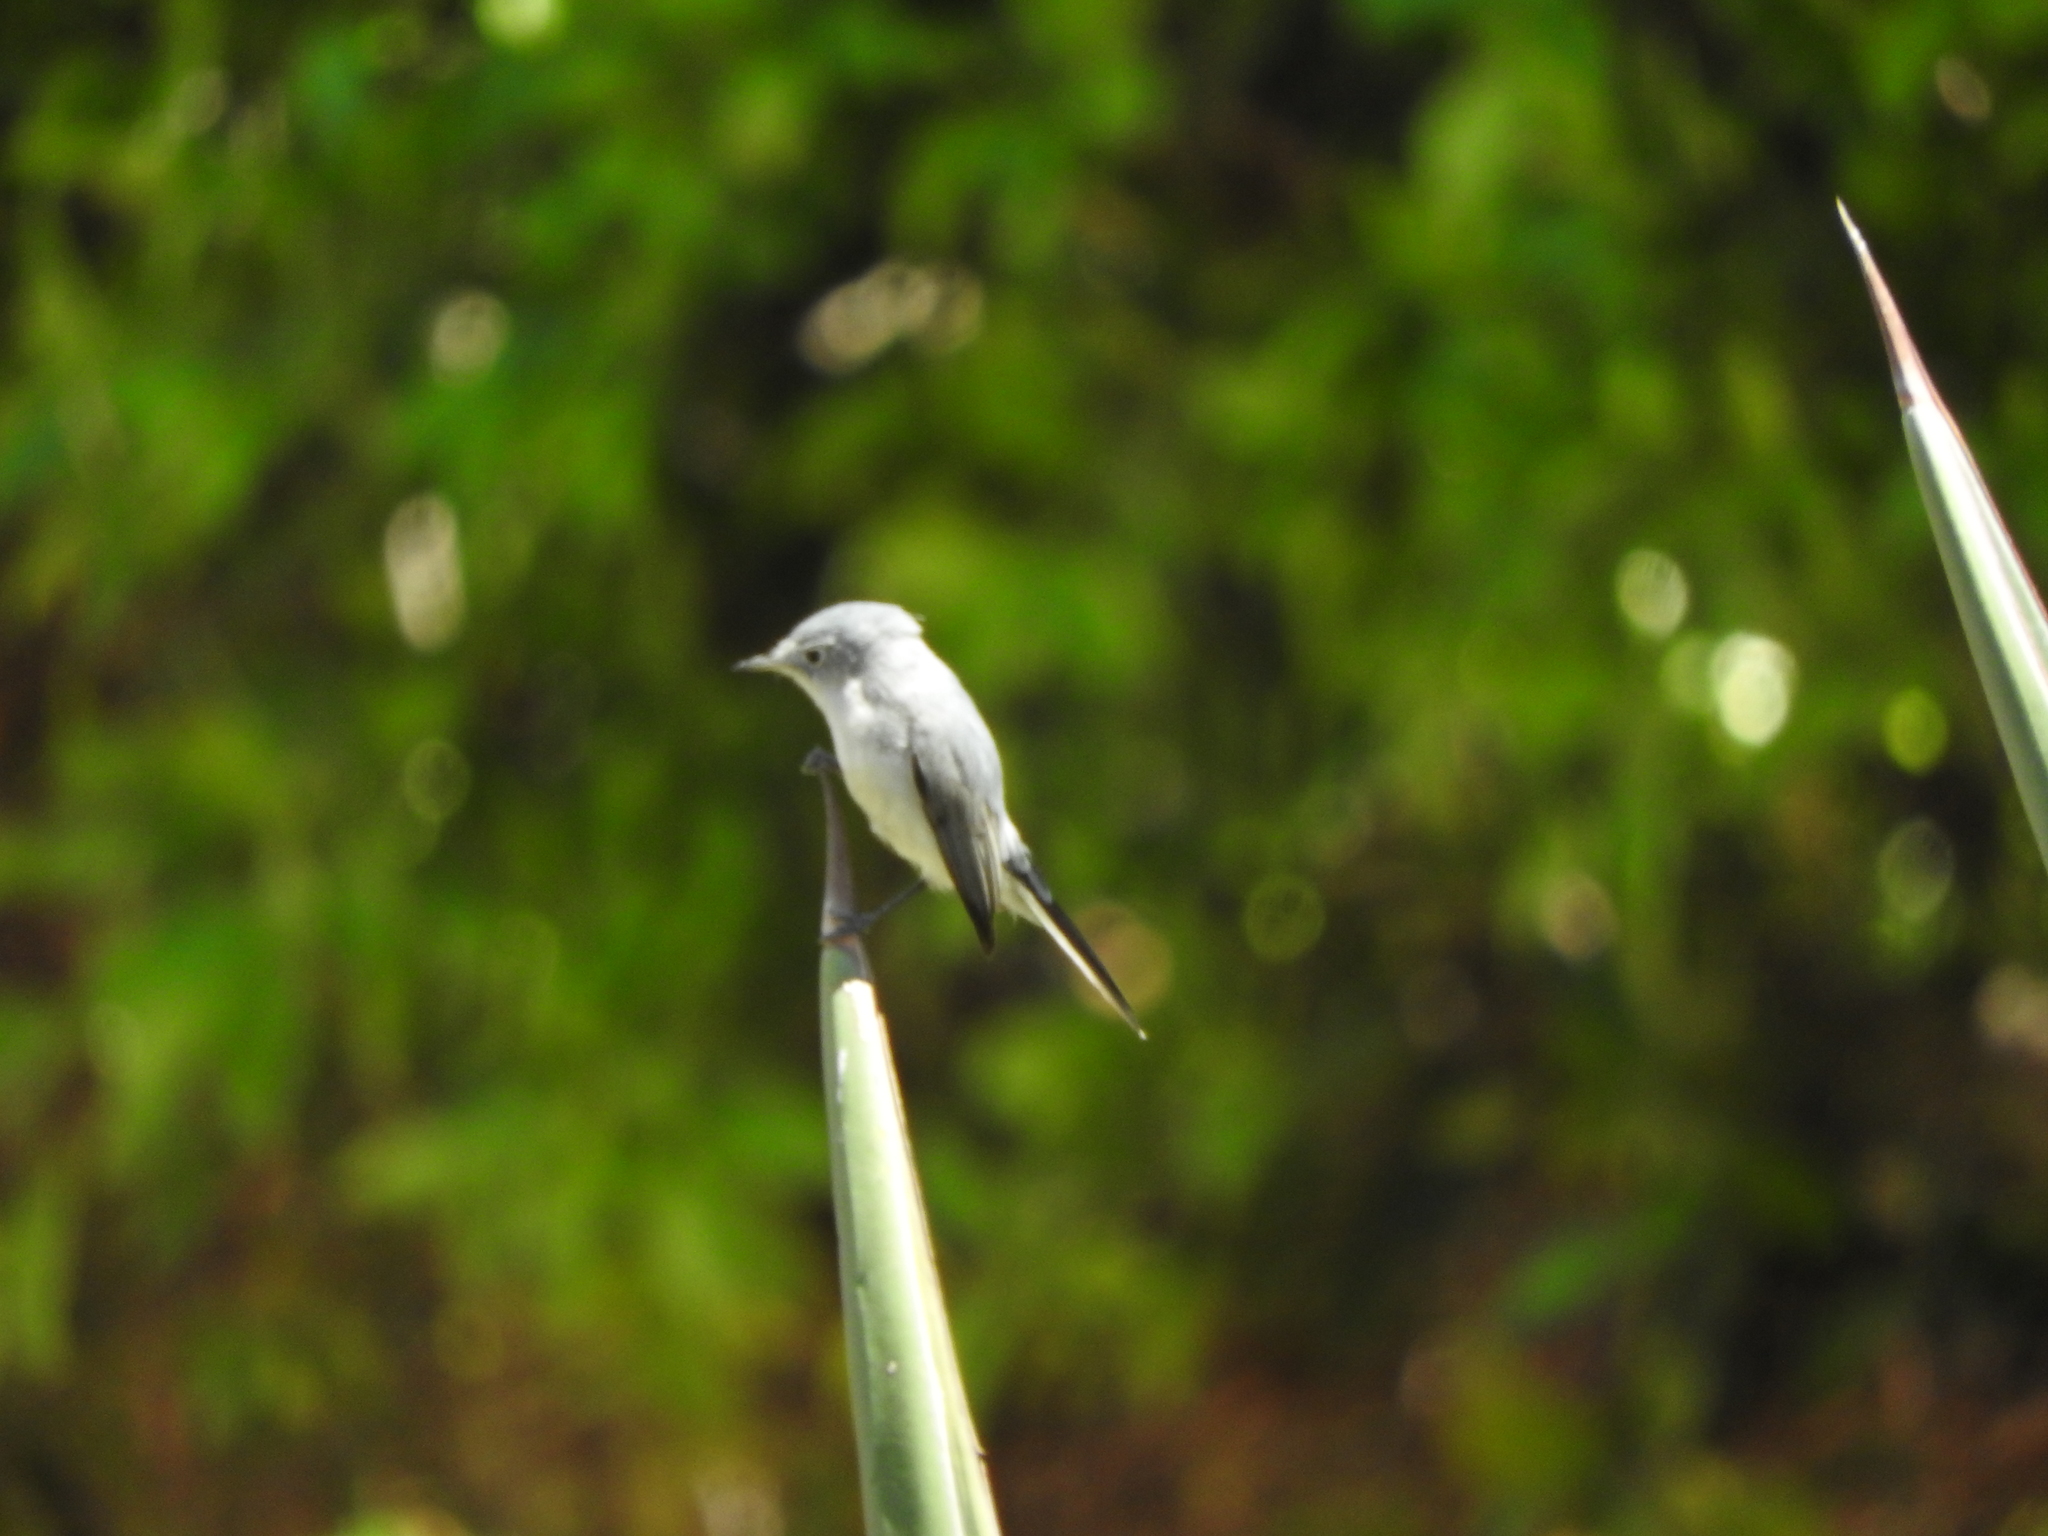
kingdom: Animalia
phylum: Chordata
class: Aves
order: Passeriformes
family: Polioptilidae
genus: Polioptila
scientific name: Polioptila caerulea
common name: Blue-gray gnatcatcher
